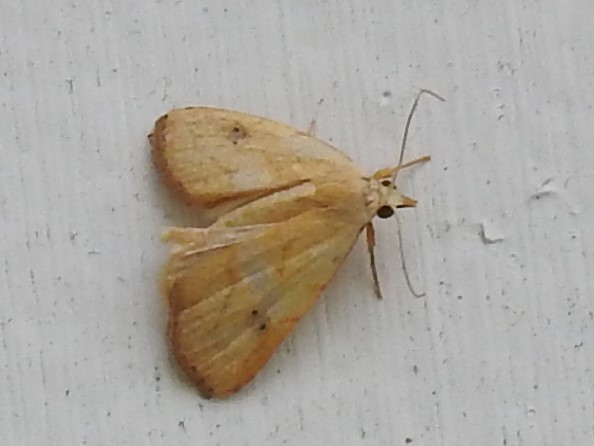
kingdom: Animalia
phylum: Arthropoda
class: Insecta
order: Lepidoptera
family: Erebidae
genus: Rivula
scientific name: Rivula propinqualis
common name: Spotted grass moth
